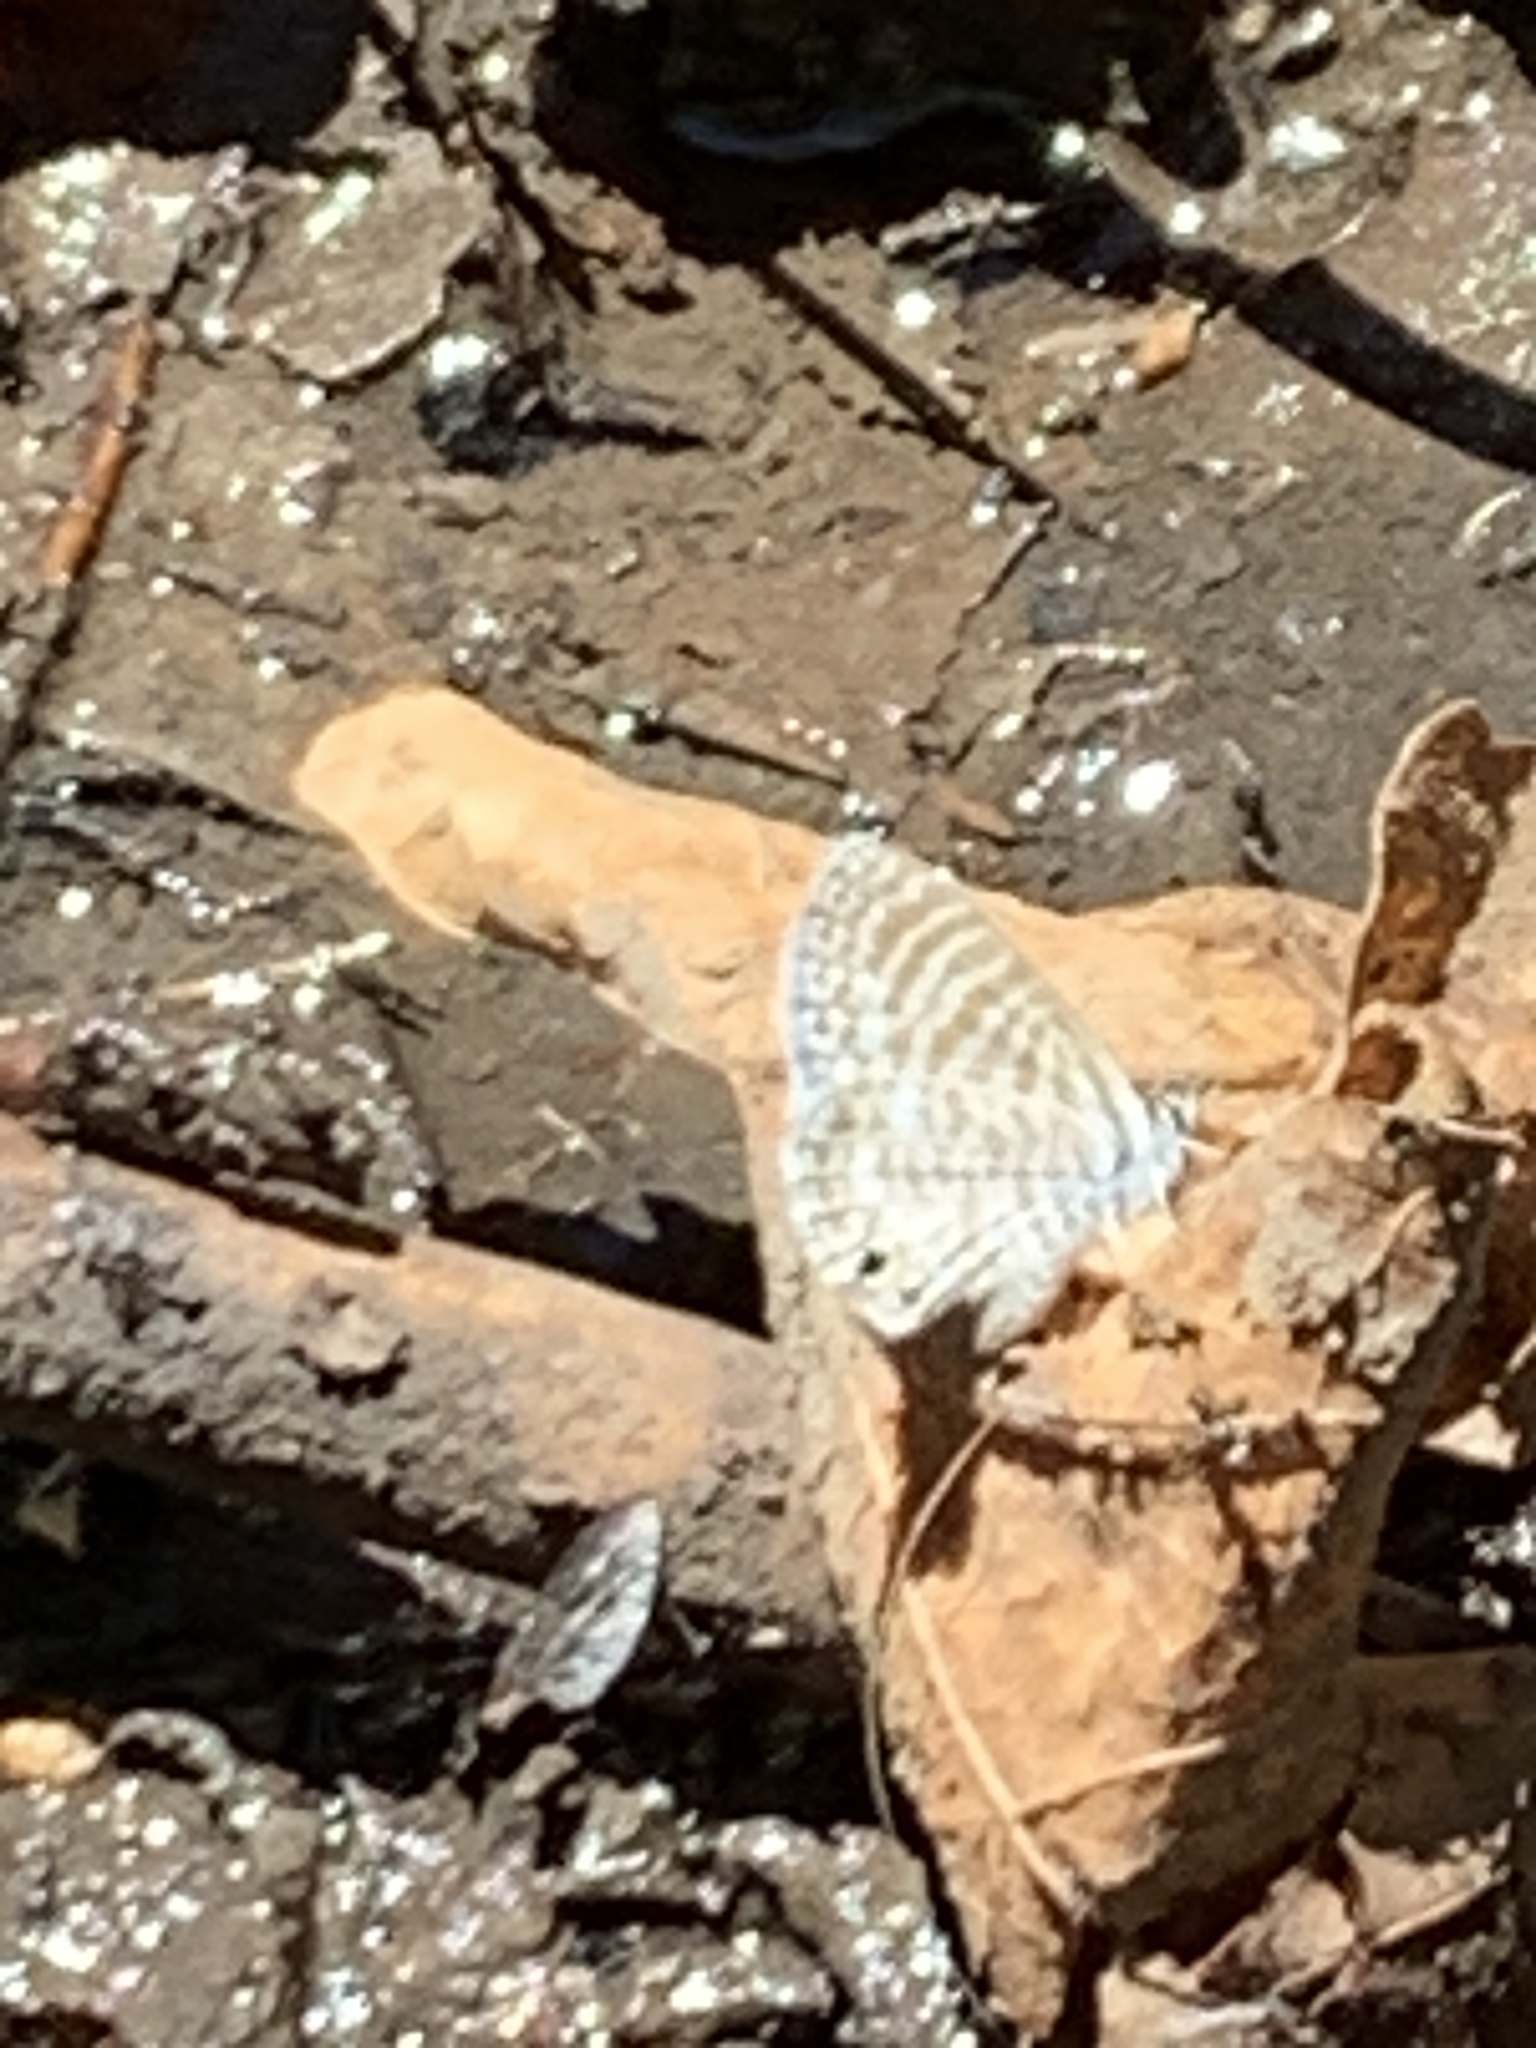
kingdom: Animalia
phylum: Arthropoda
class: Insecta
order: Lepidoptera
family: Lycaenidae
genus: Leptotes
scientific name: Leptotes marina
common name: Marine blue
